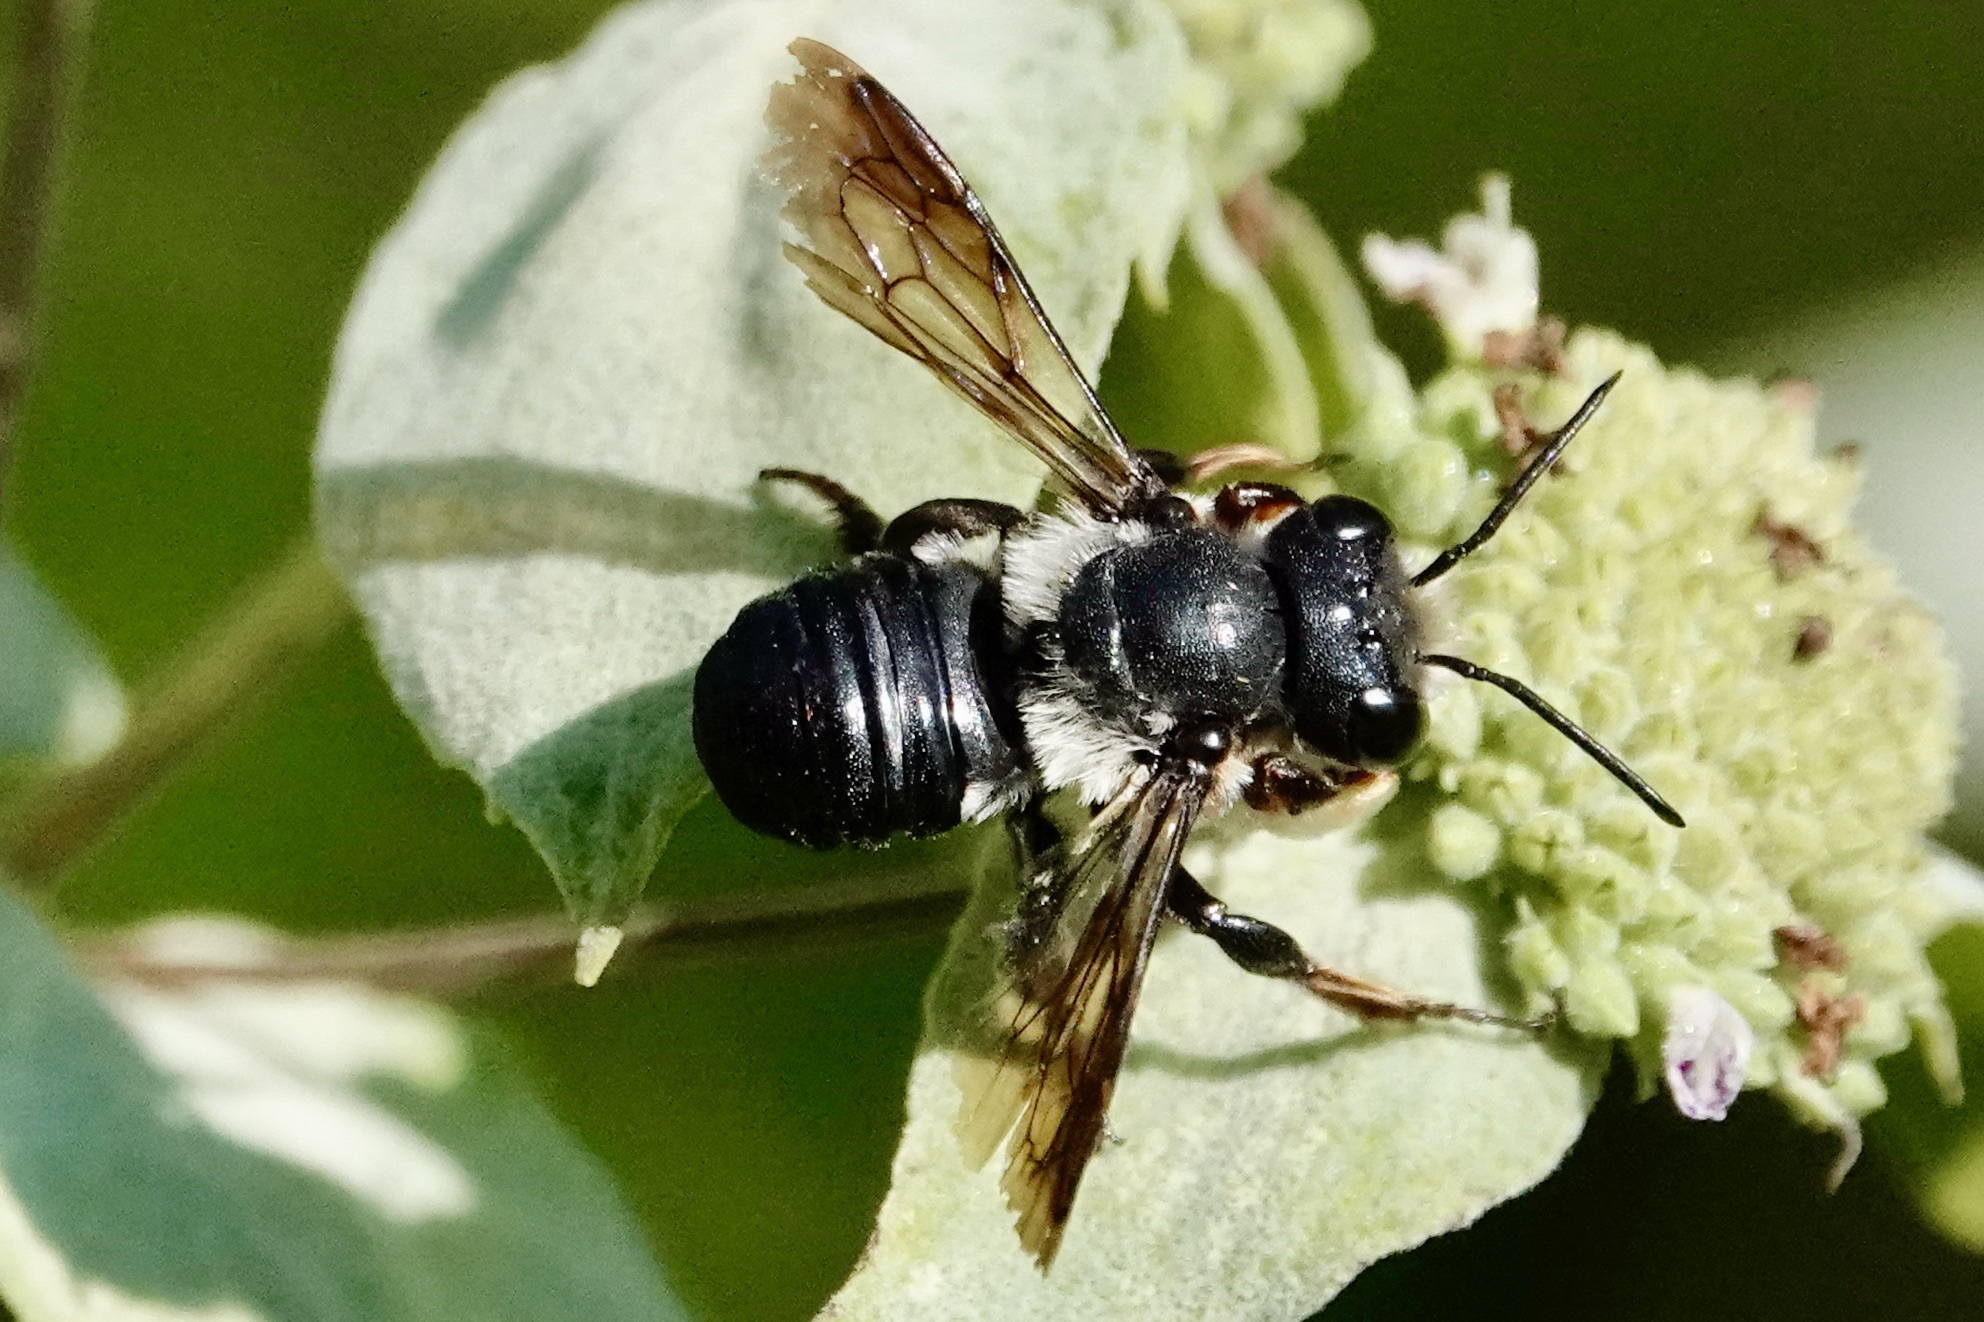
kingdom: Animalia
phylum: Arthropoda
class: Insecta
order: Hymenoptera
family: Megachilidae
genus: Megachile
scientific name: Megachile xylocopoides
